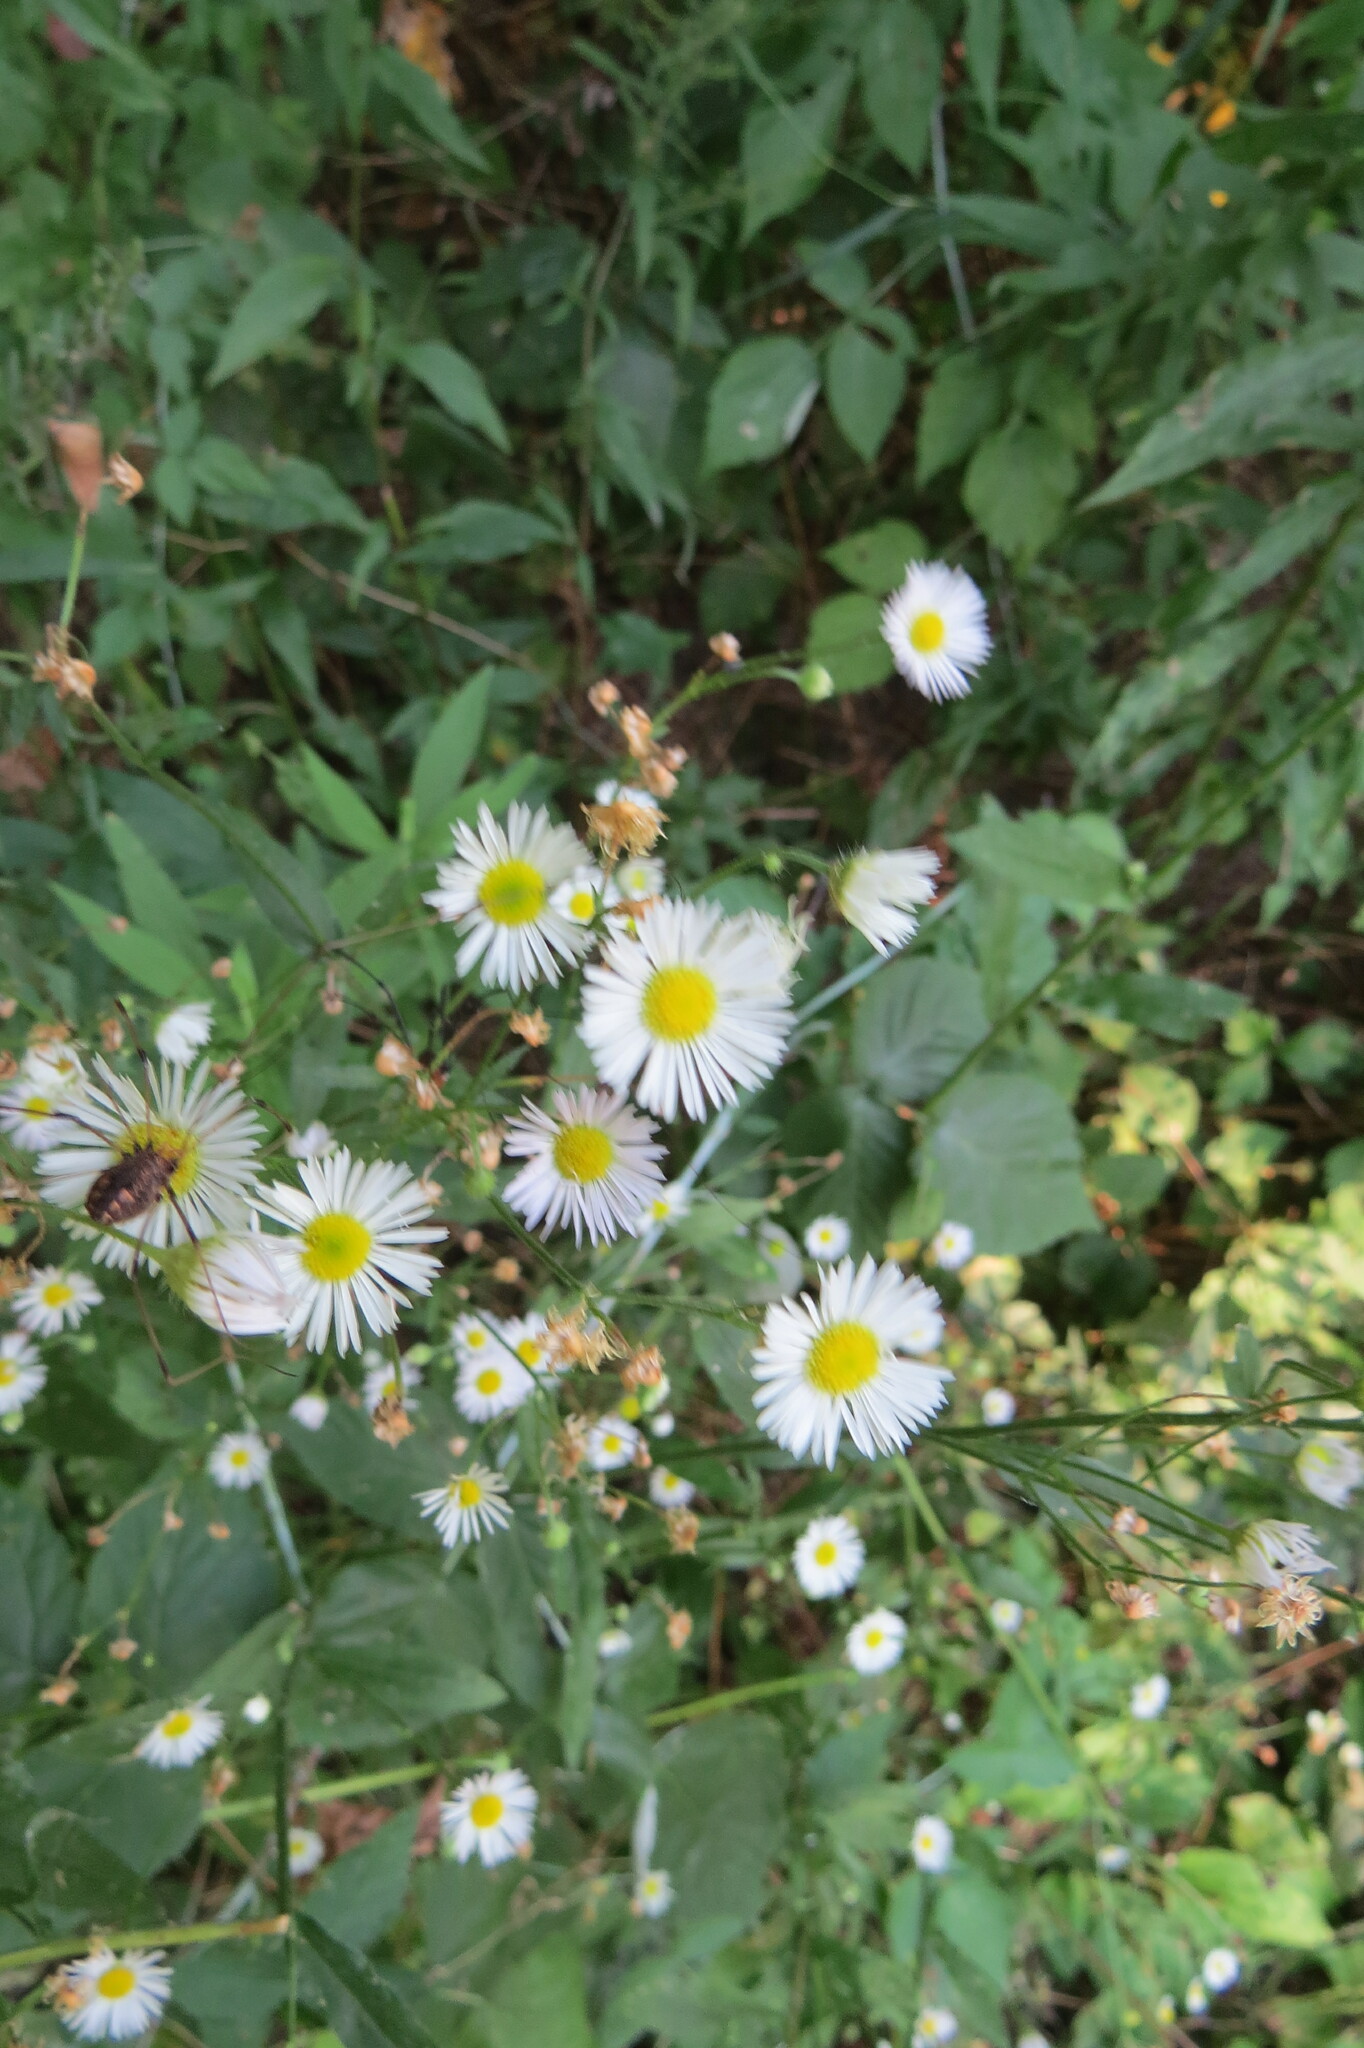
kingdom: Plantae
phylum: Tracheophyta
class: Magnoliopsida
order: Asterales
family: Asteraceae
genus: Erigeron
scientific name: Erigeron strigosus
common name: Common eastern fleabane
